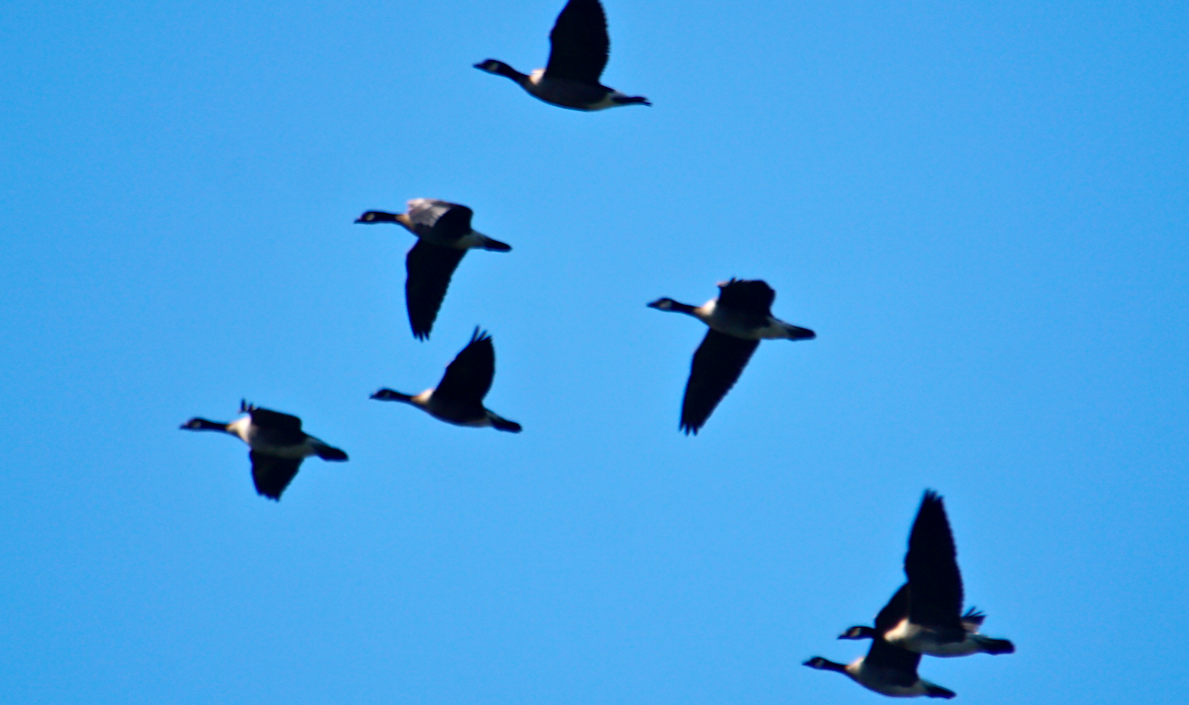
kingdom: Animalia
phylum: Chordata
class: Aves
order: Anseriformes
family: Anatidae
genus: Branta
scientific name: Branta hutchinsii
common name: Cackling goose
